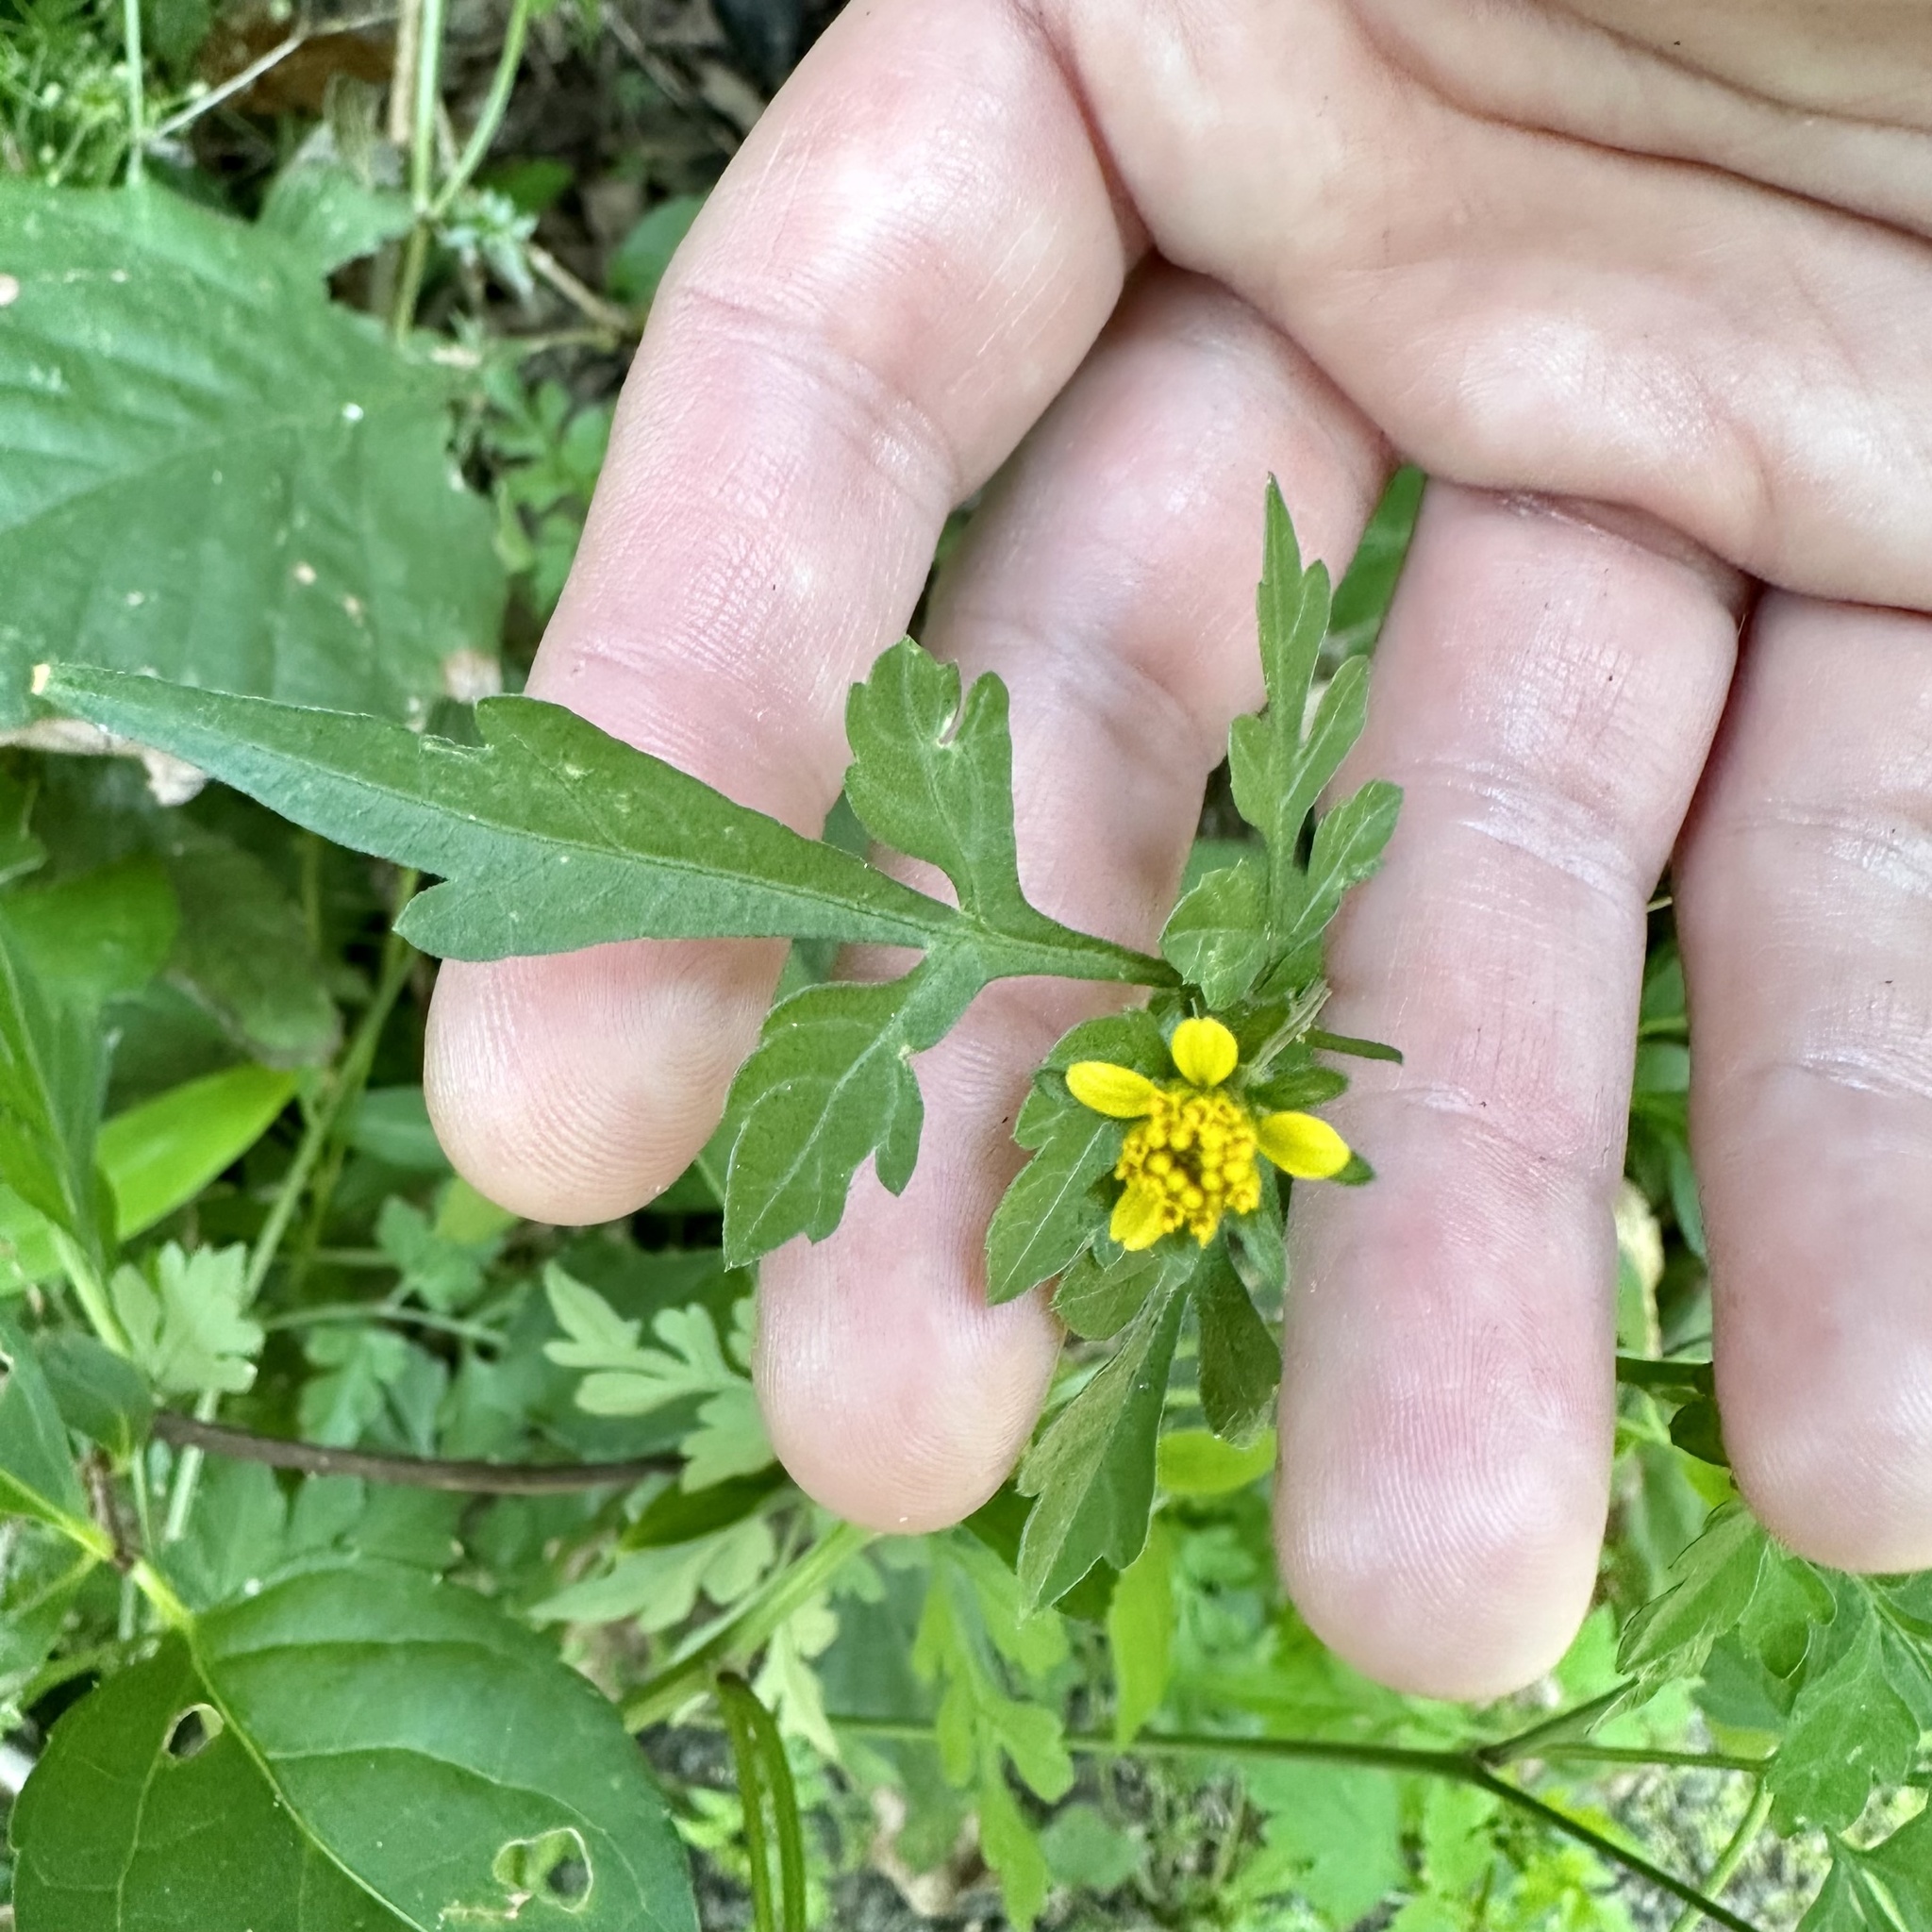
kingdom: Plantae
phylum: Tracheophyta
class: Magnoliopsida
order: Asterales
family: Asteraceae
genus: Bidens
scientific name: Bidens bipinnata
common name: Spanish-needles
